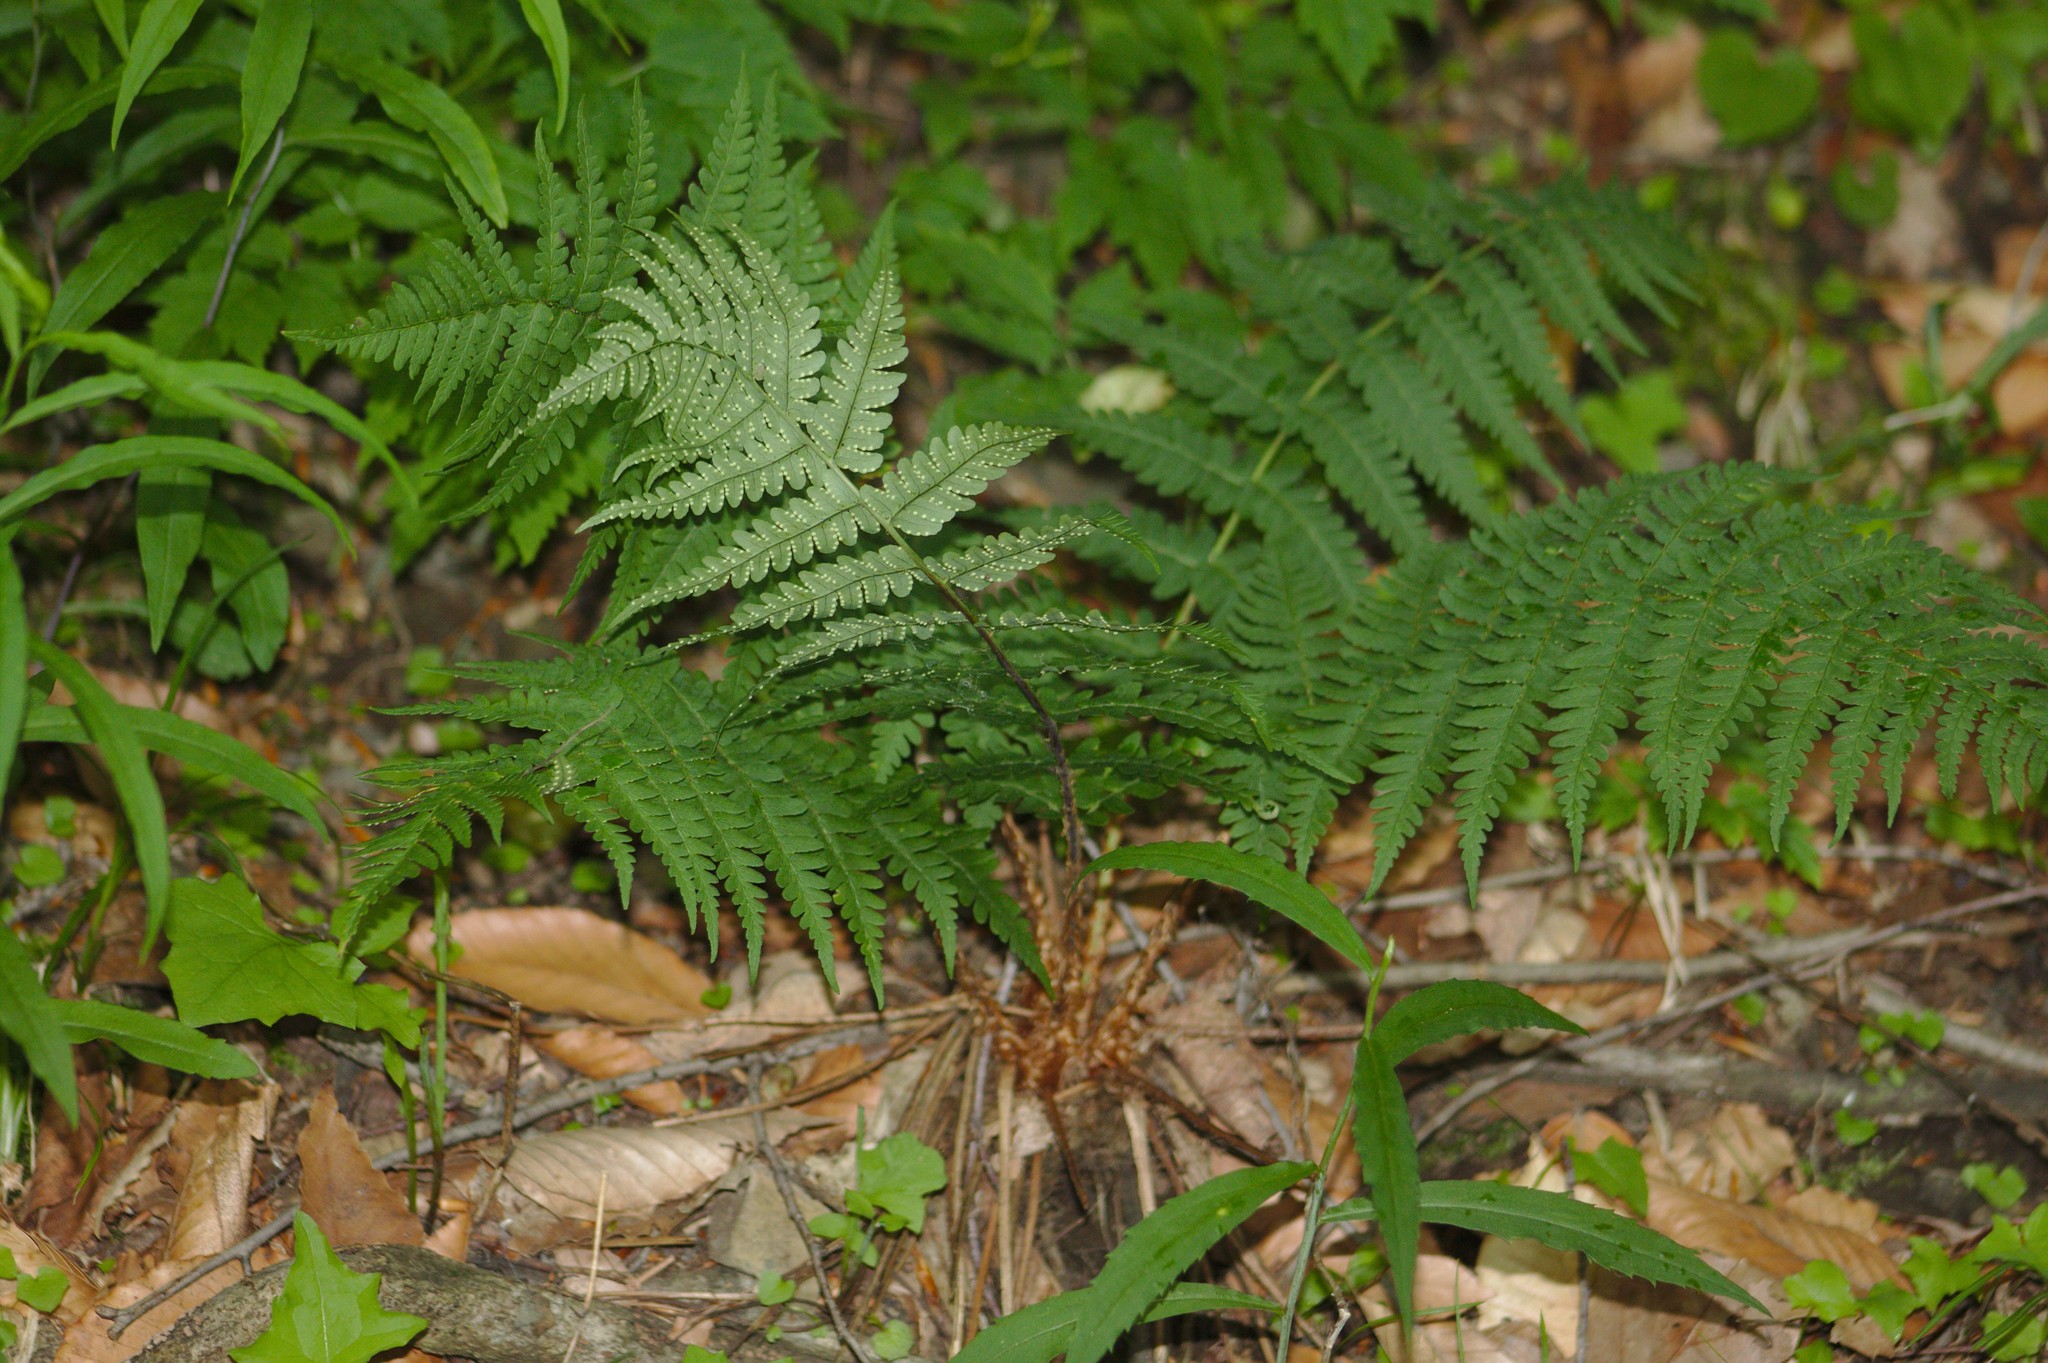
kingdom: Plantae
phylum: Tracheophyta
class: Polypodiopsida
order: Polypodiales
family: Dryopteridaceae
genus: Dryopteris
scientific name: Dryopteris marginalis
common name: Marginal wood fern
